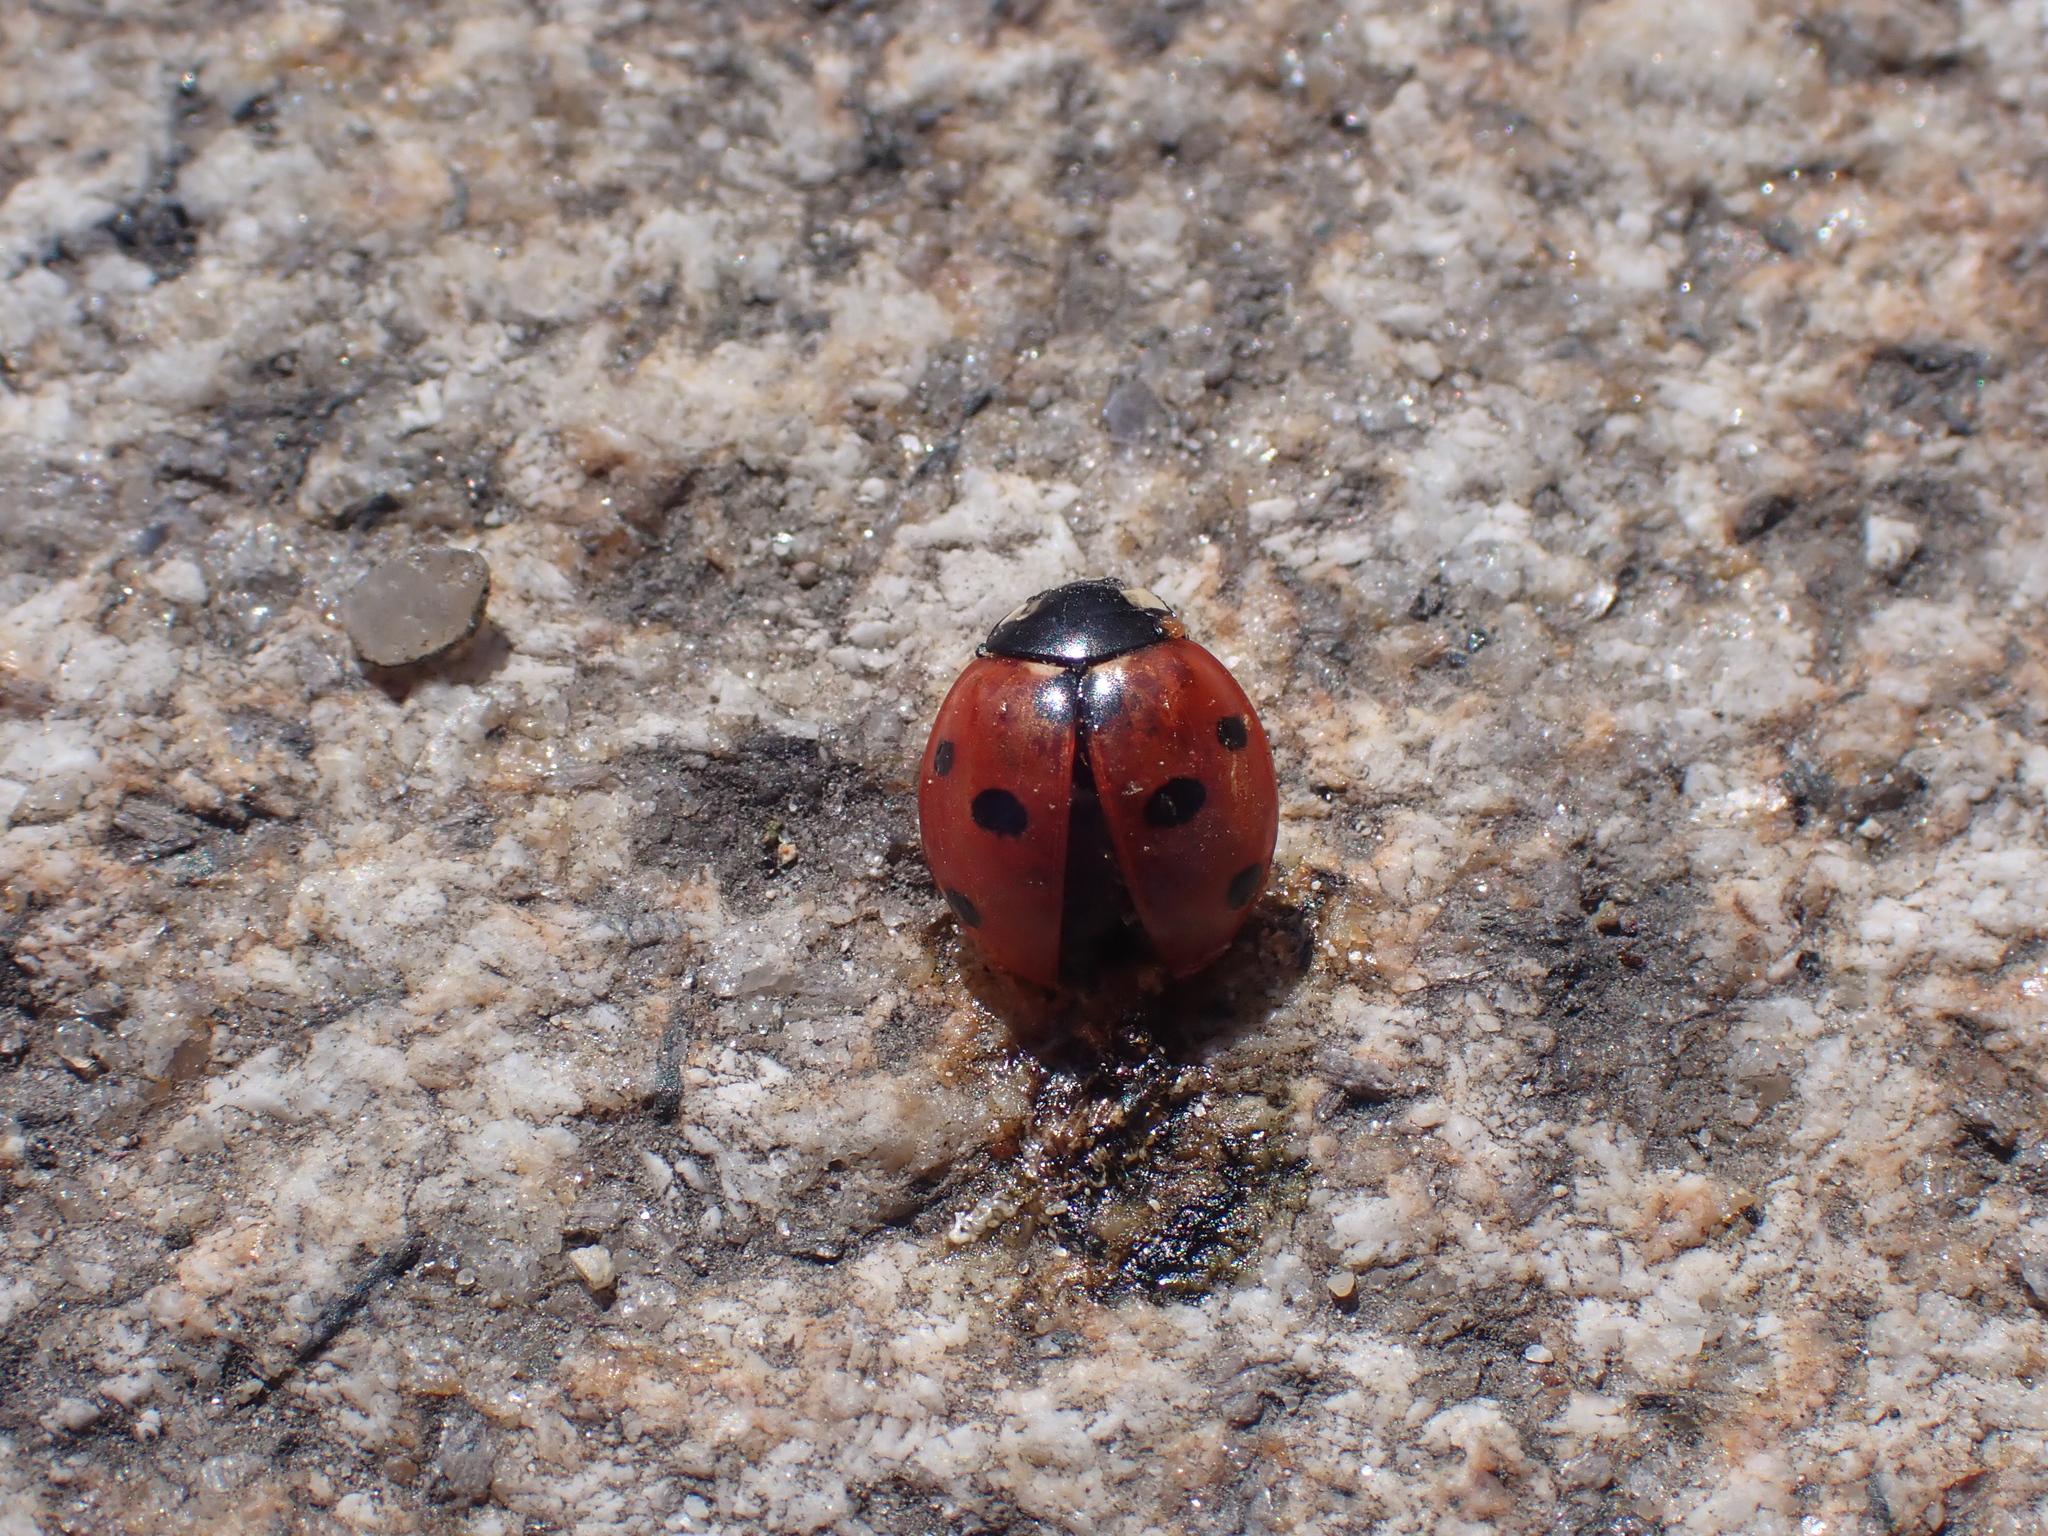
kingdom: Animalia
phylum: Arthropoda
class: Insecta
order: Coleoptera
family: Coccinellidae
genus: Coccinella
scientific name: Coccinella septempunctata
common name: Sevenspotted lady beetle
